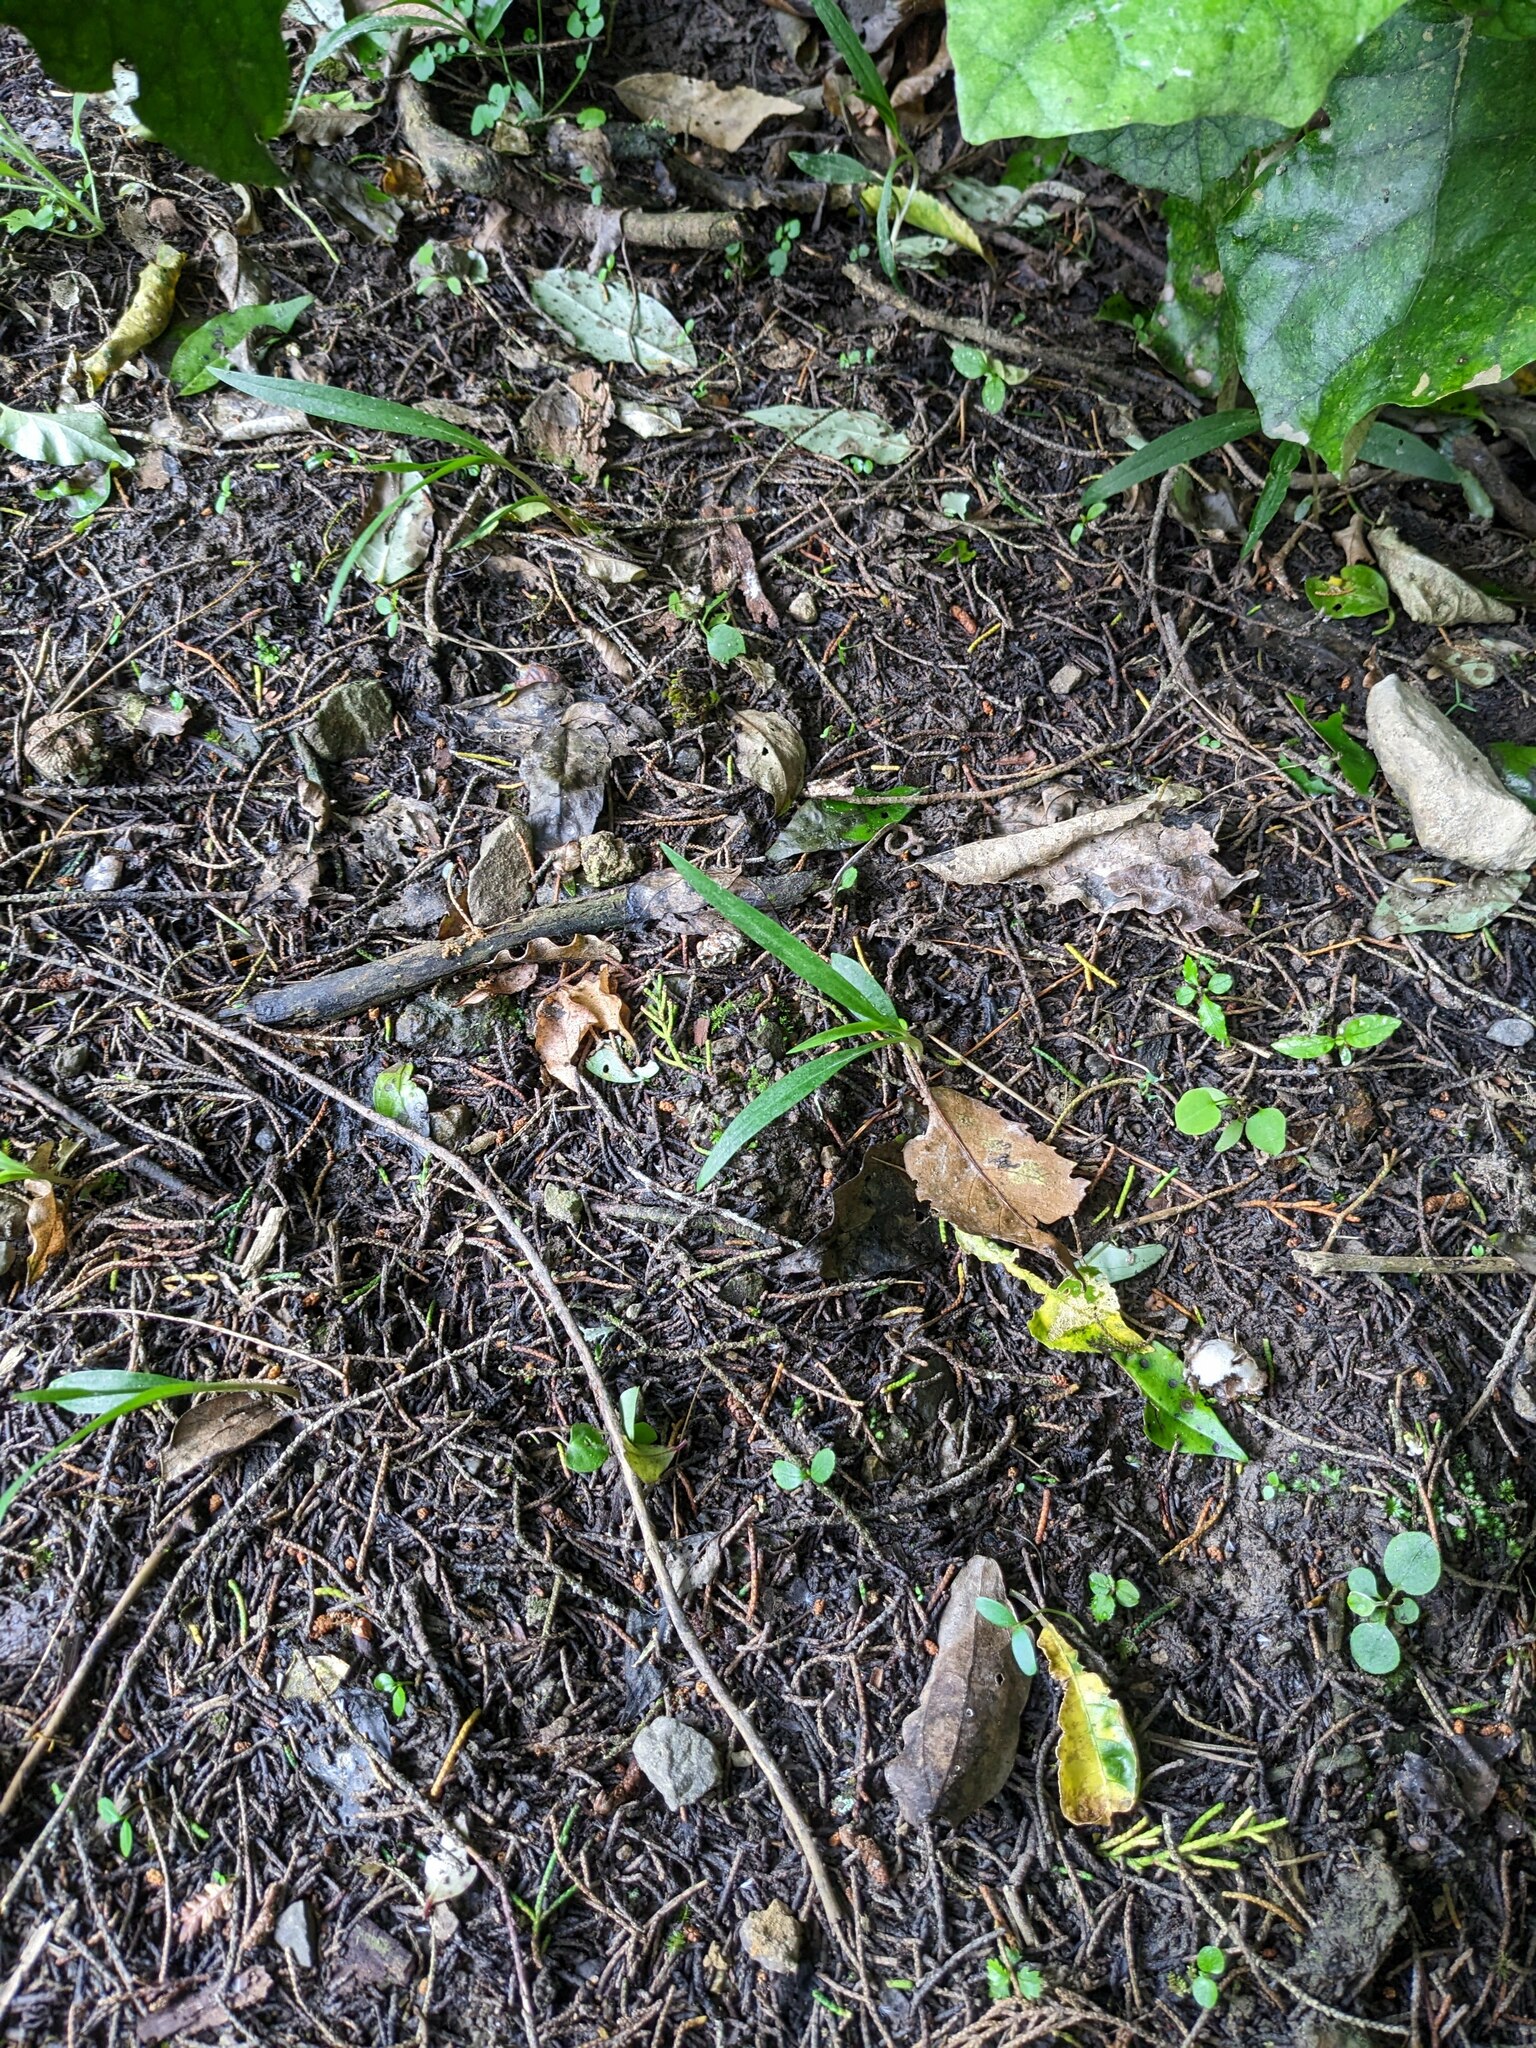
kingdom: Plantae
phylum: Tracheophyta
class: Liliopsida
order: Asparagales
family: Orchidaceae
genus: Pterostylis
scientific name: Pterostylis banksii
